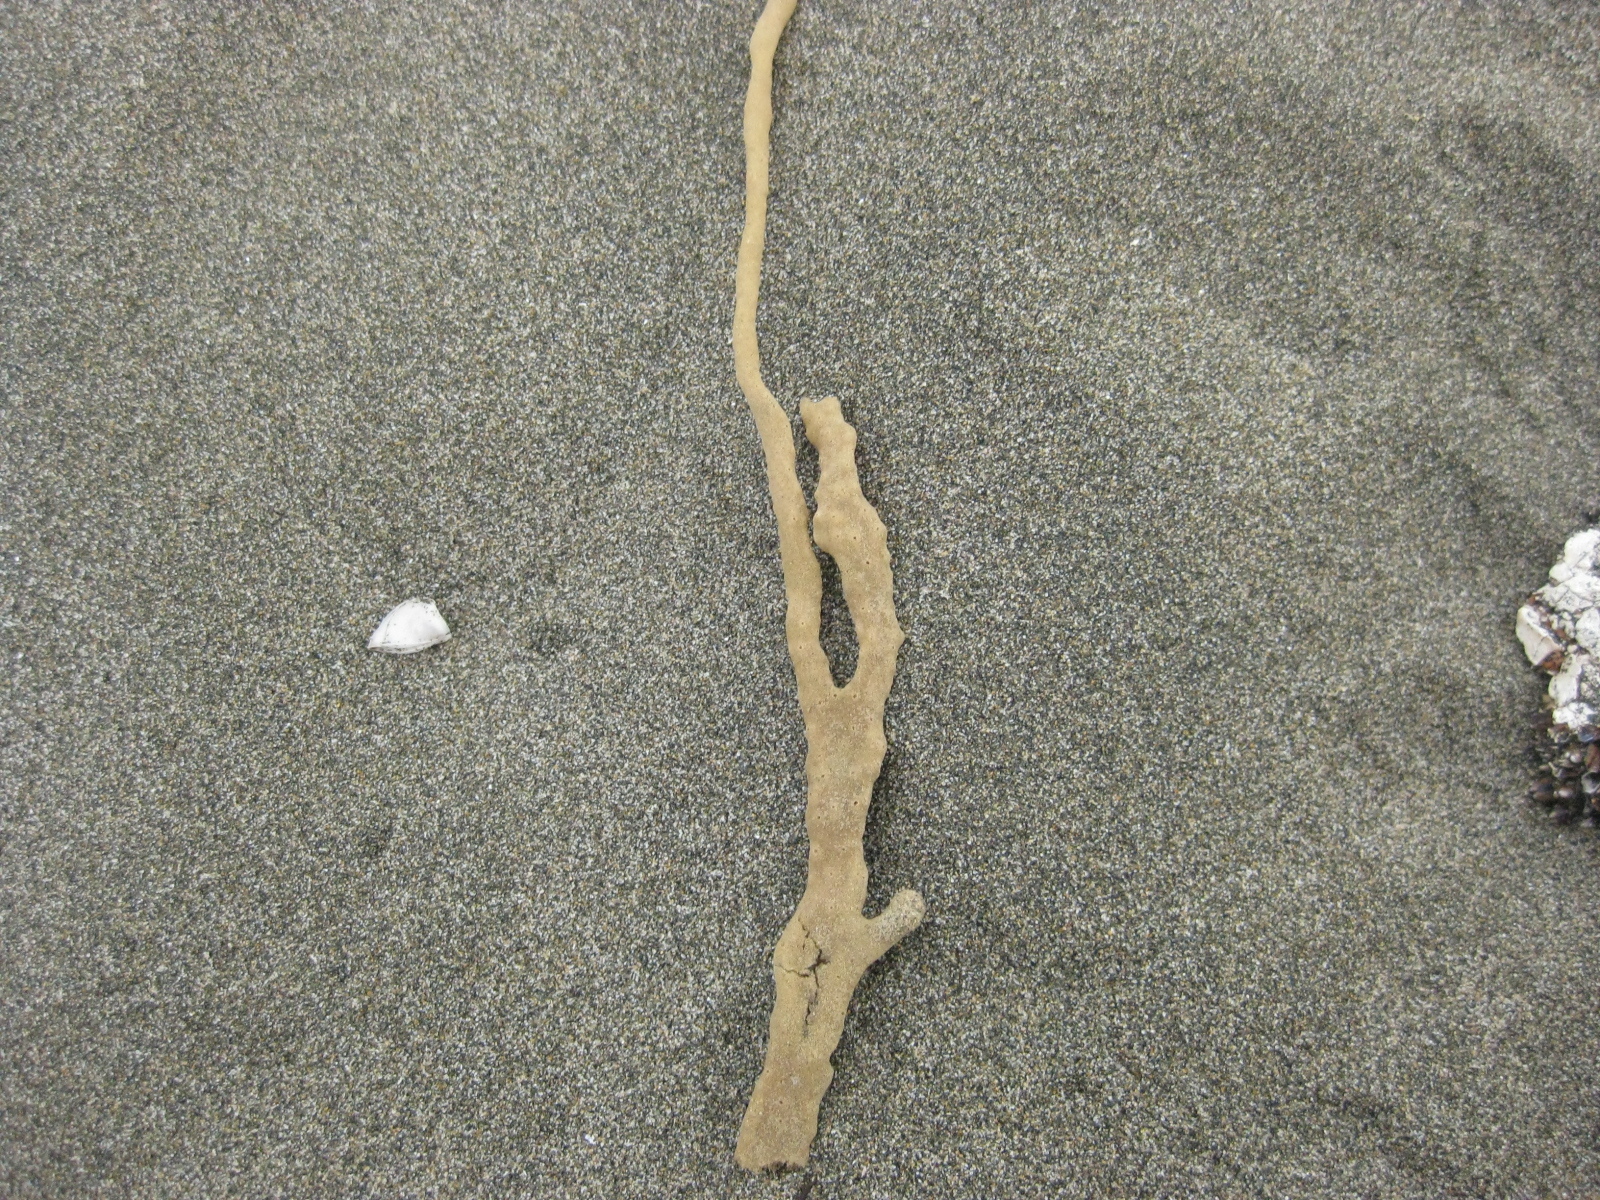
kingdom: Animalia
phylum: Porifera
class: Demospongiae
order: Haplosclerida
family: Callyspongiidae
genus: Callyspongia
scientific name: Callyspongia nuda
